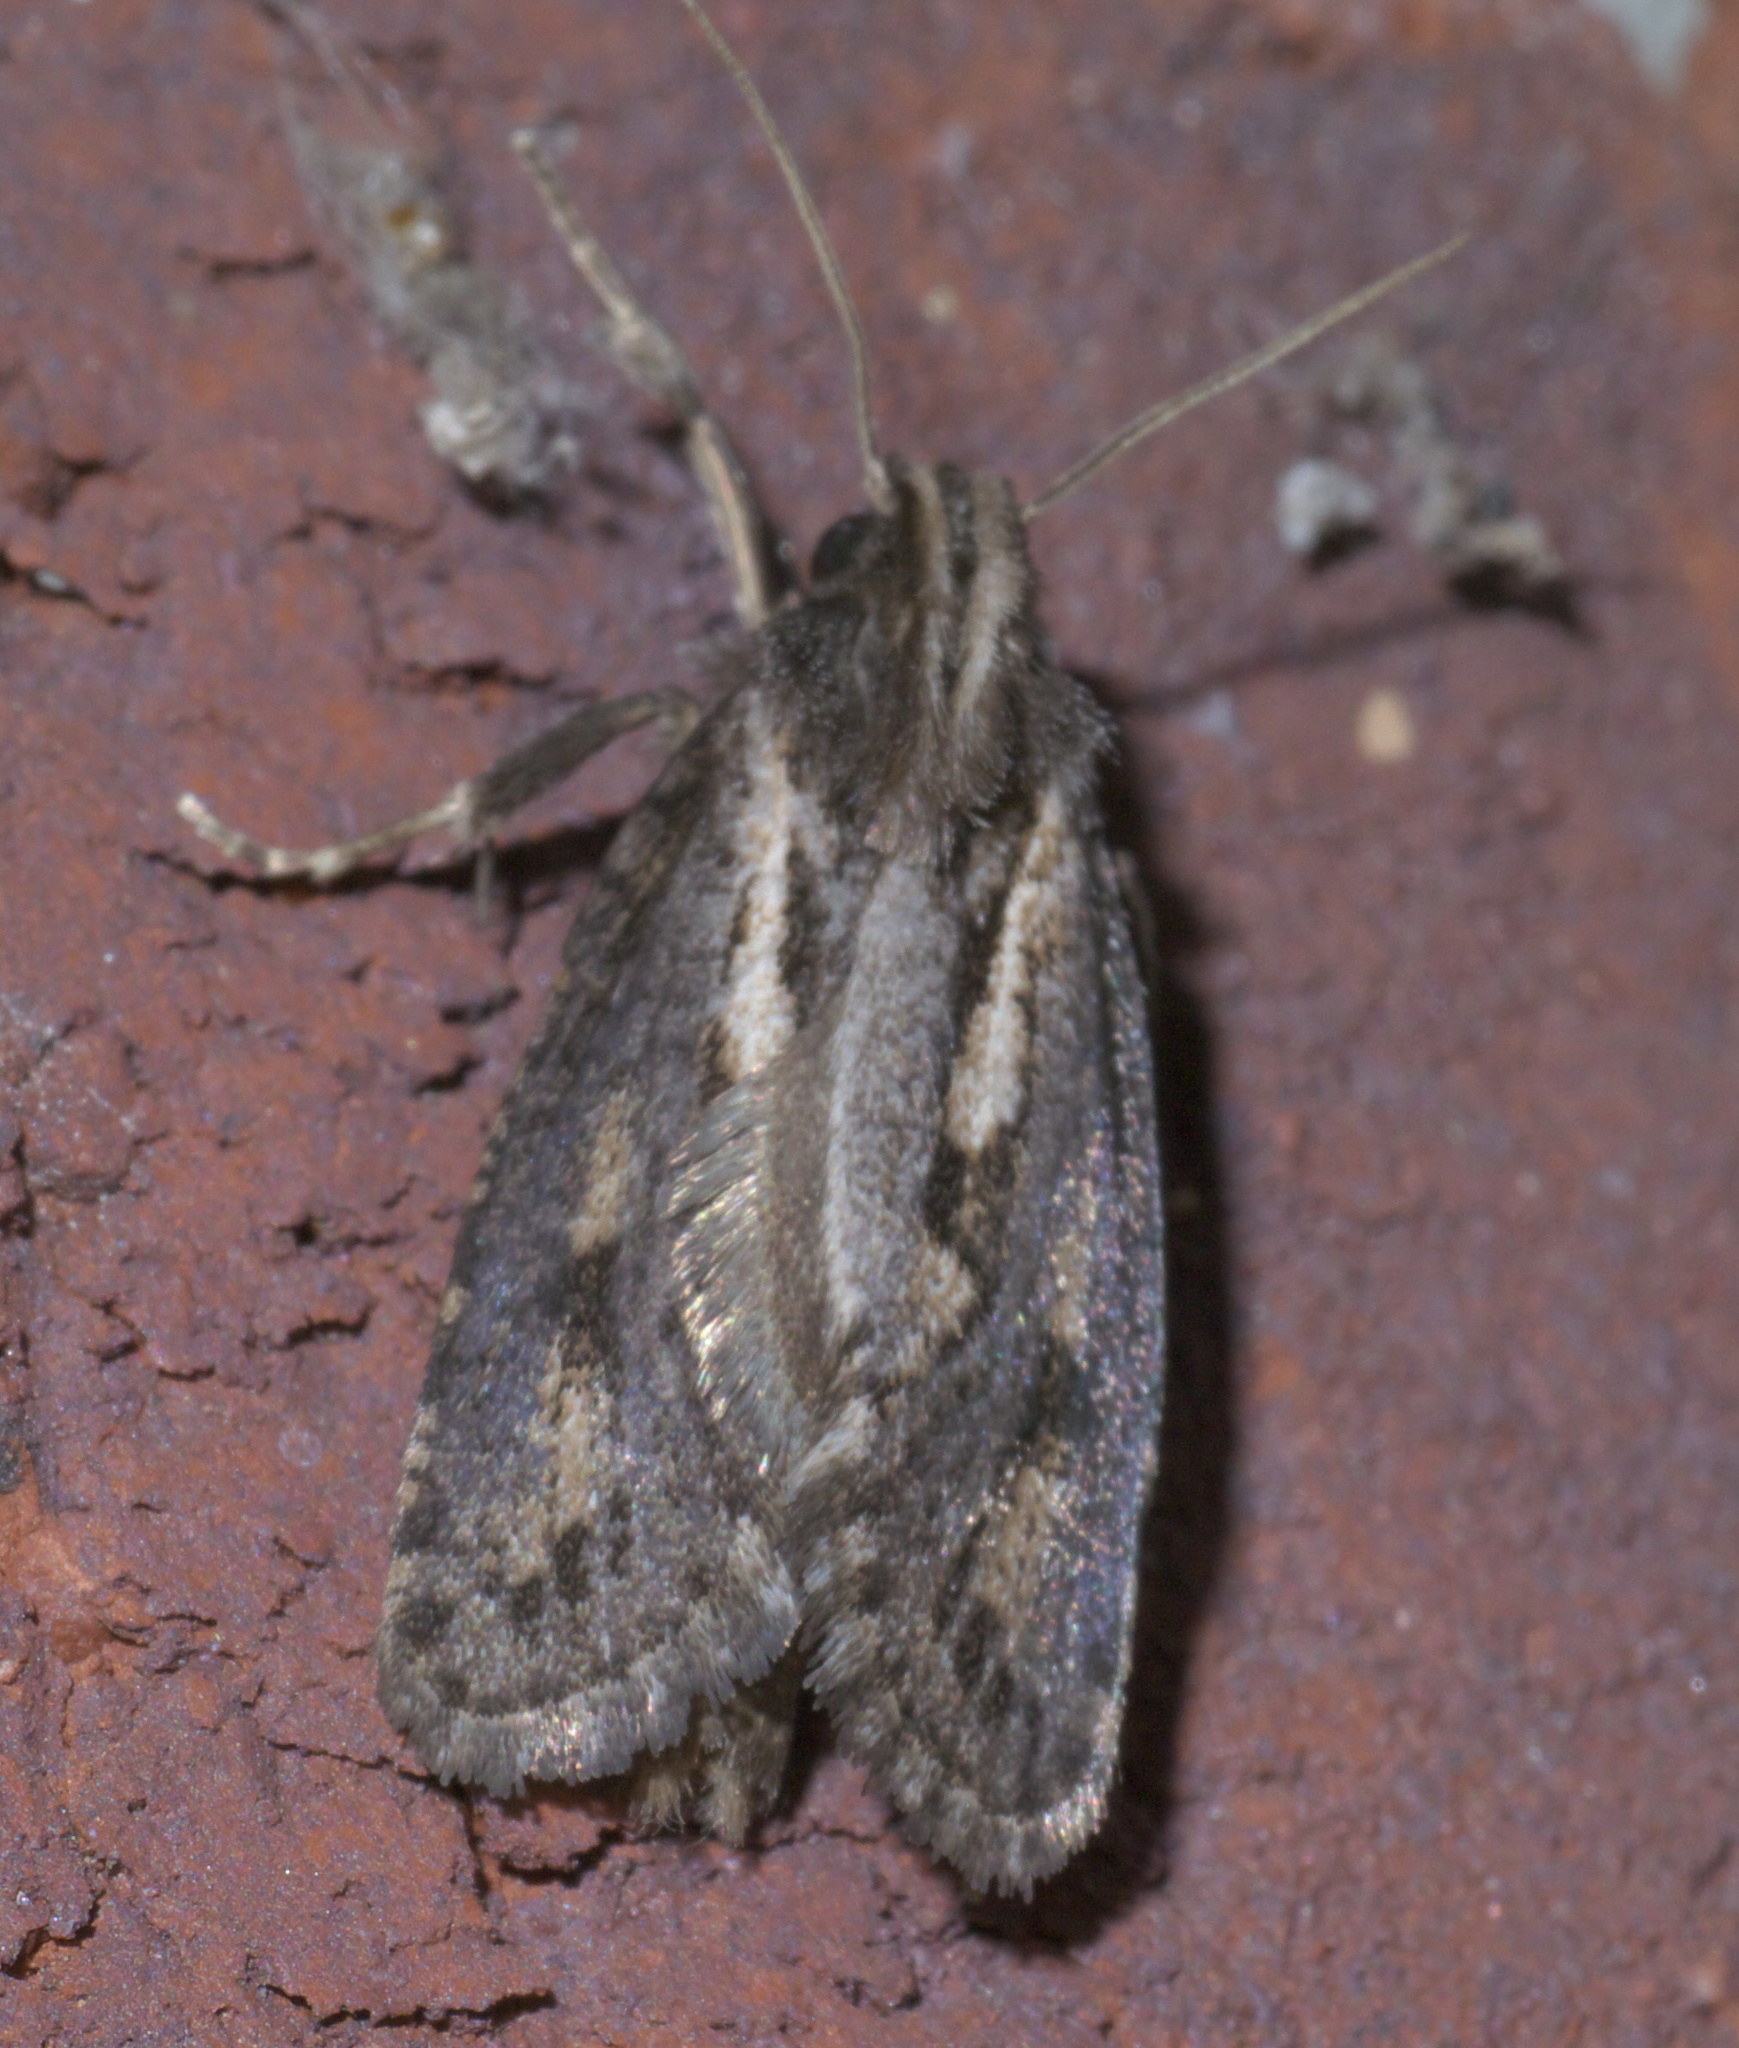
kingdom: Animalia
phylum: Arthropoda
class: Insecta
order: Lepidoptera
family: Tineidae
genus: Acrolophus
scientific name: Acrolophus popeanella
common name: Clemens' grass tubeworm moth
